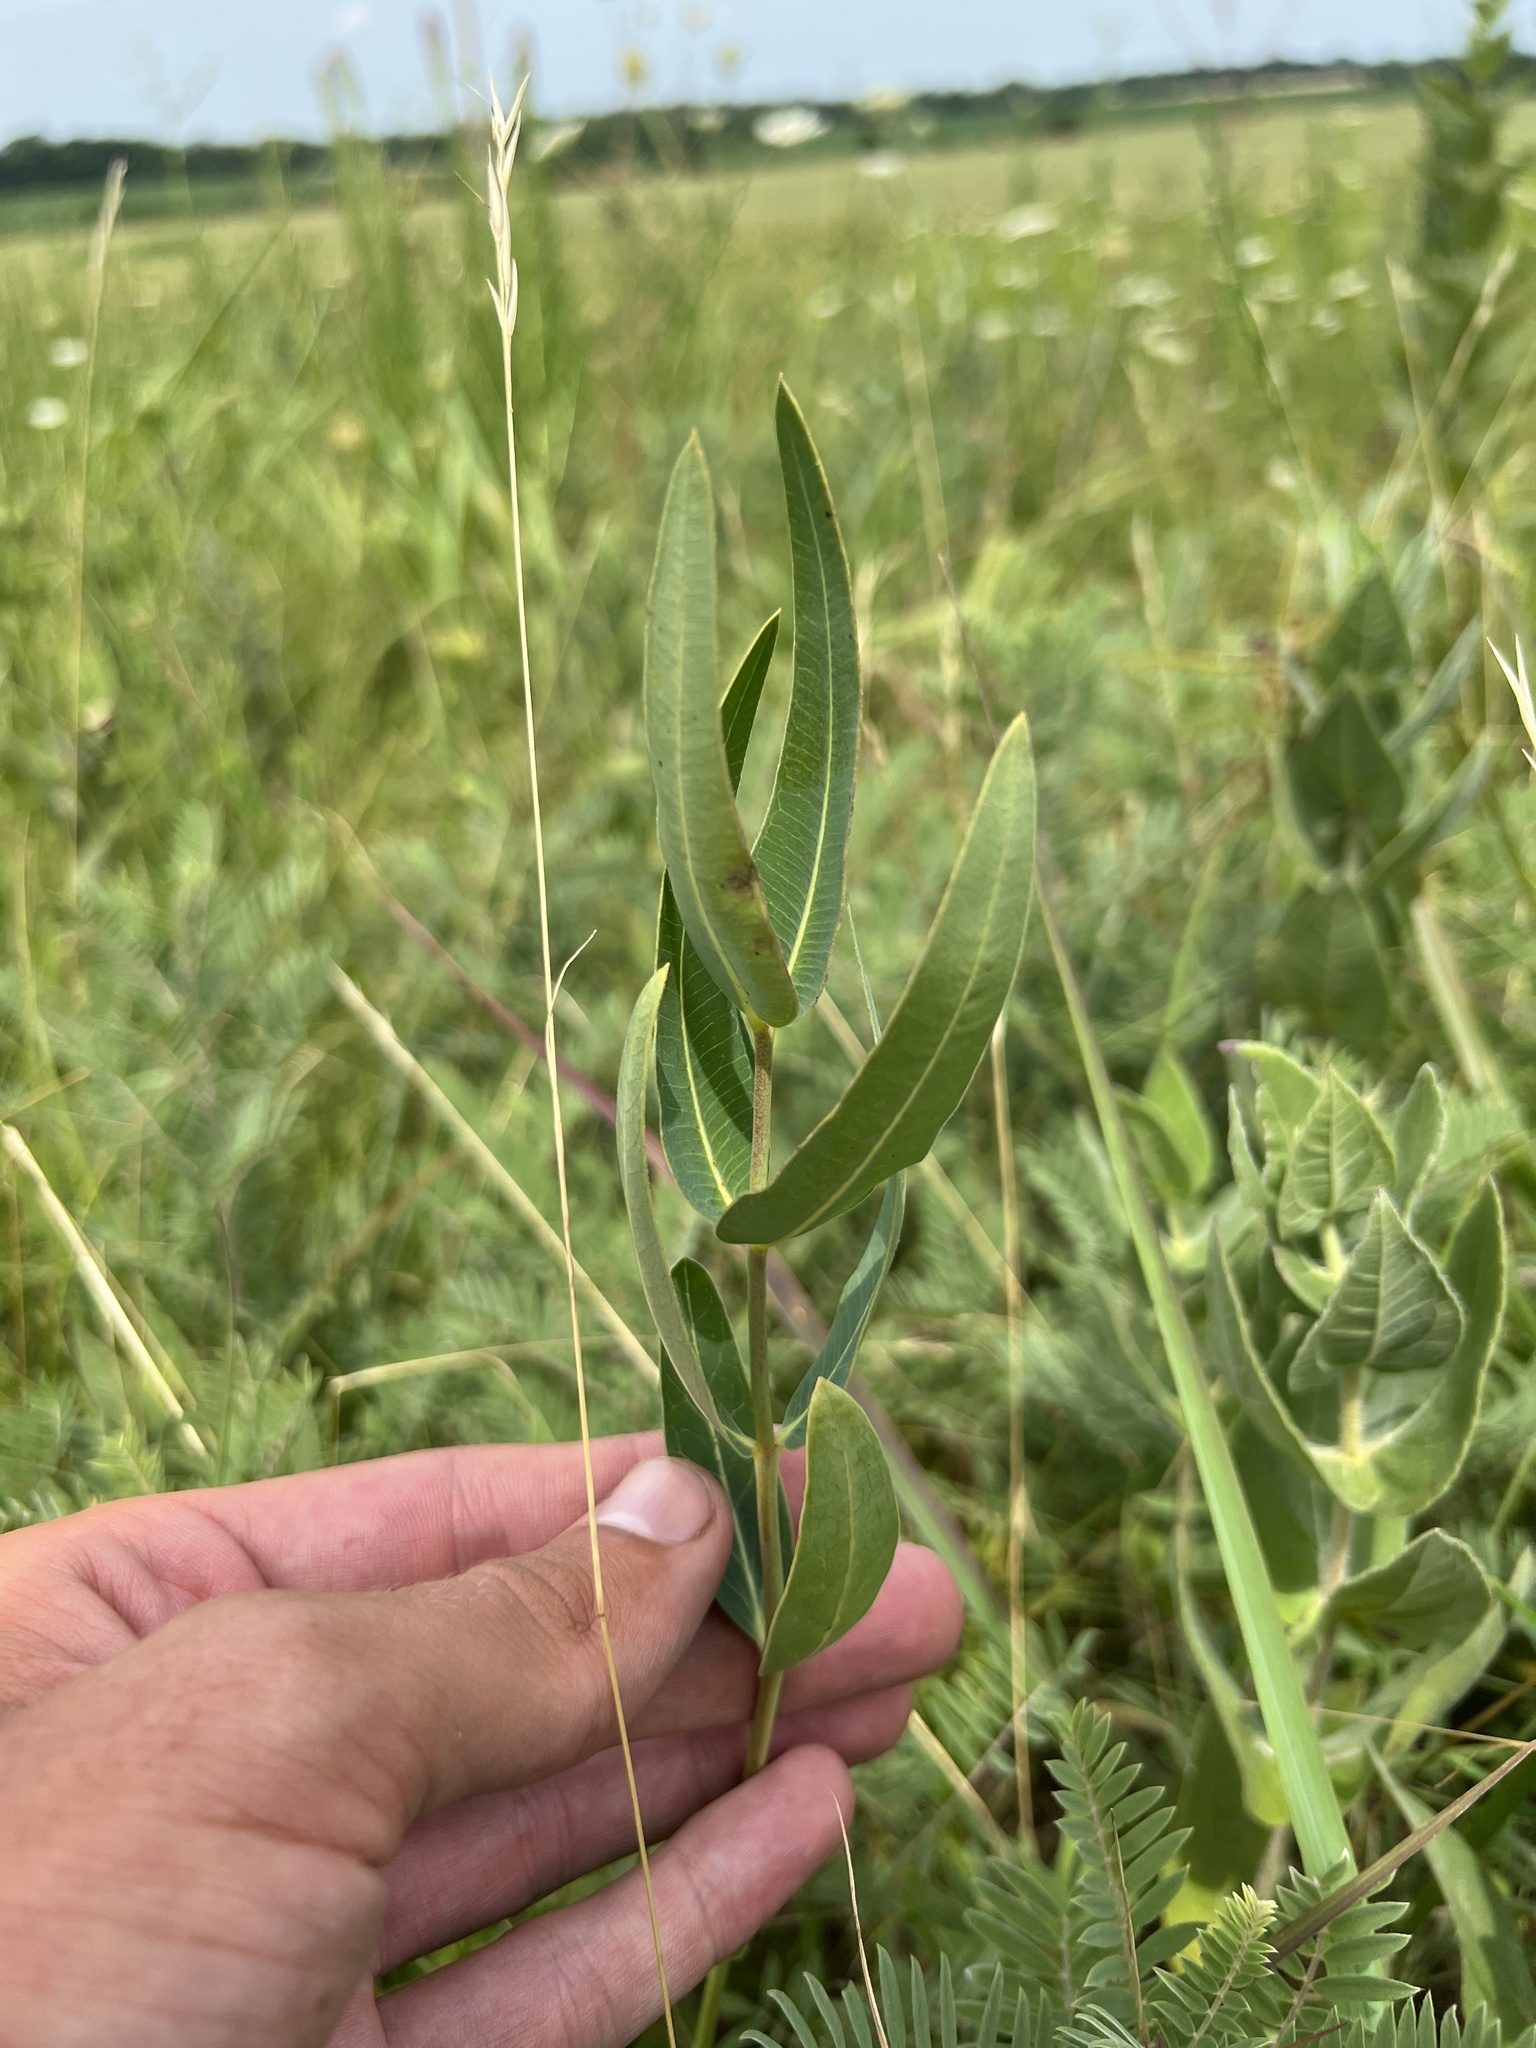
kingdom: Plantae
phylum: Tracheophyta
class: Magnoliopsida
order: Gentianales
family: Apocynaceae
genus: Asclepias
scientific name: Asclepias meadii
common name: Mead's milkweed
